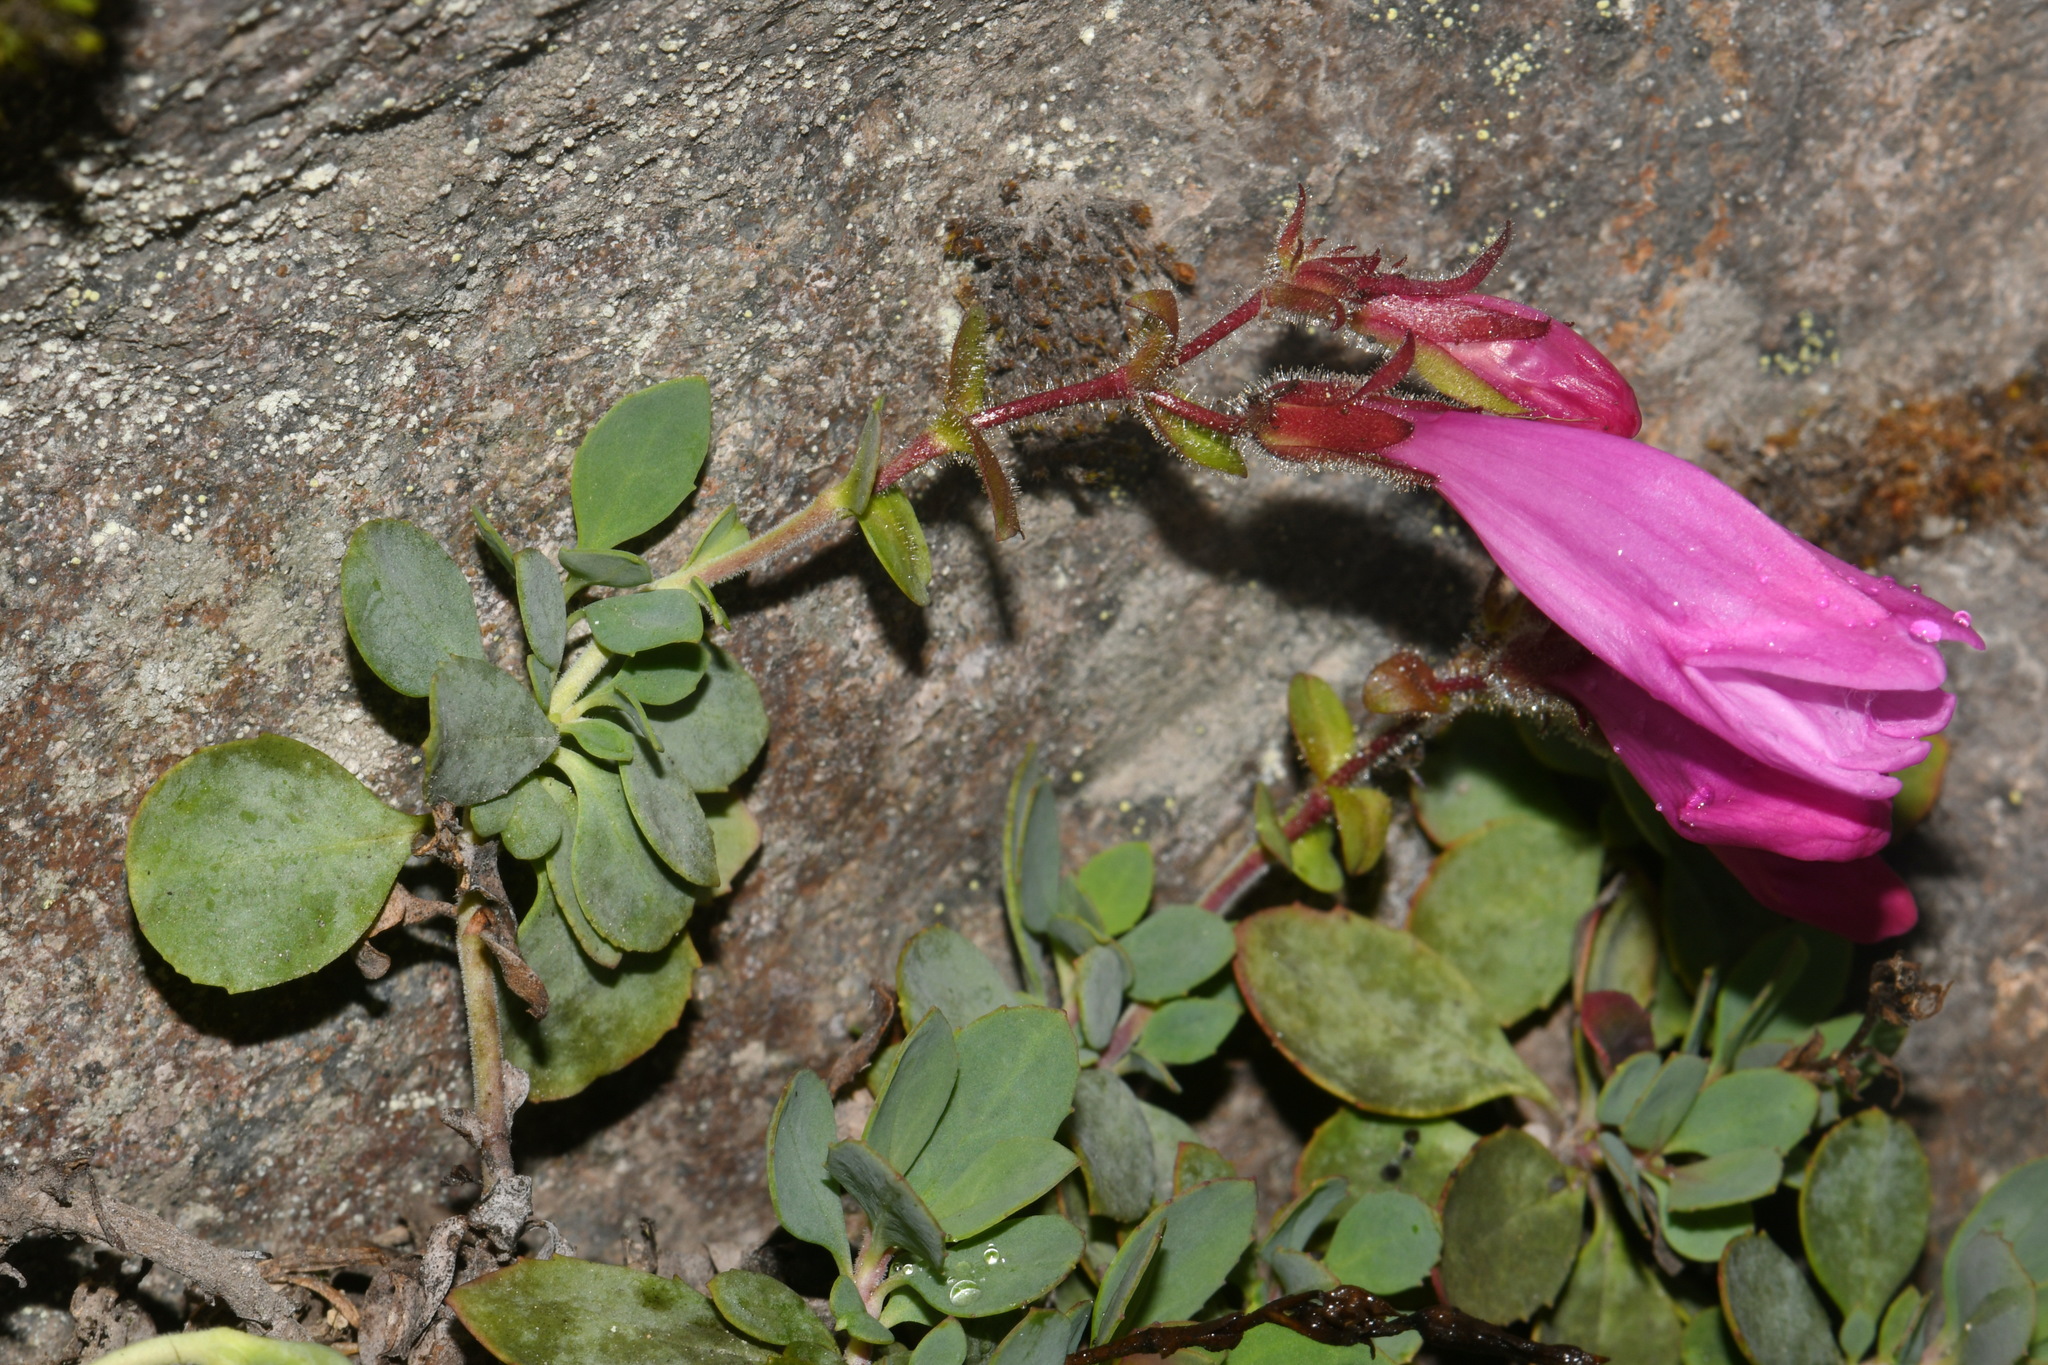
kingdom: Plantae
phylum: Tracheophyta
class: Magnoliopsida
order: Lamiales
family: Plantaginaceae
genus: Penstemon
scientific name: Penstemon rupicola
